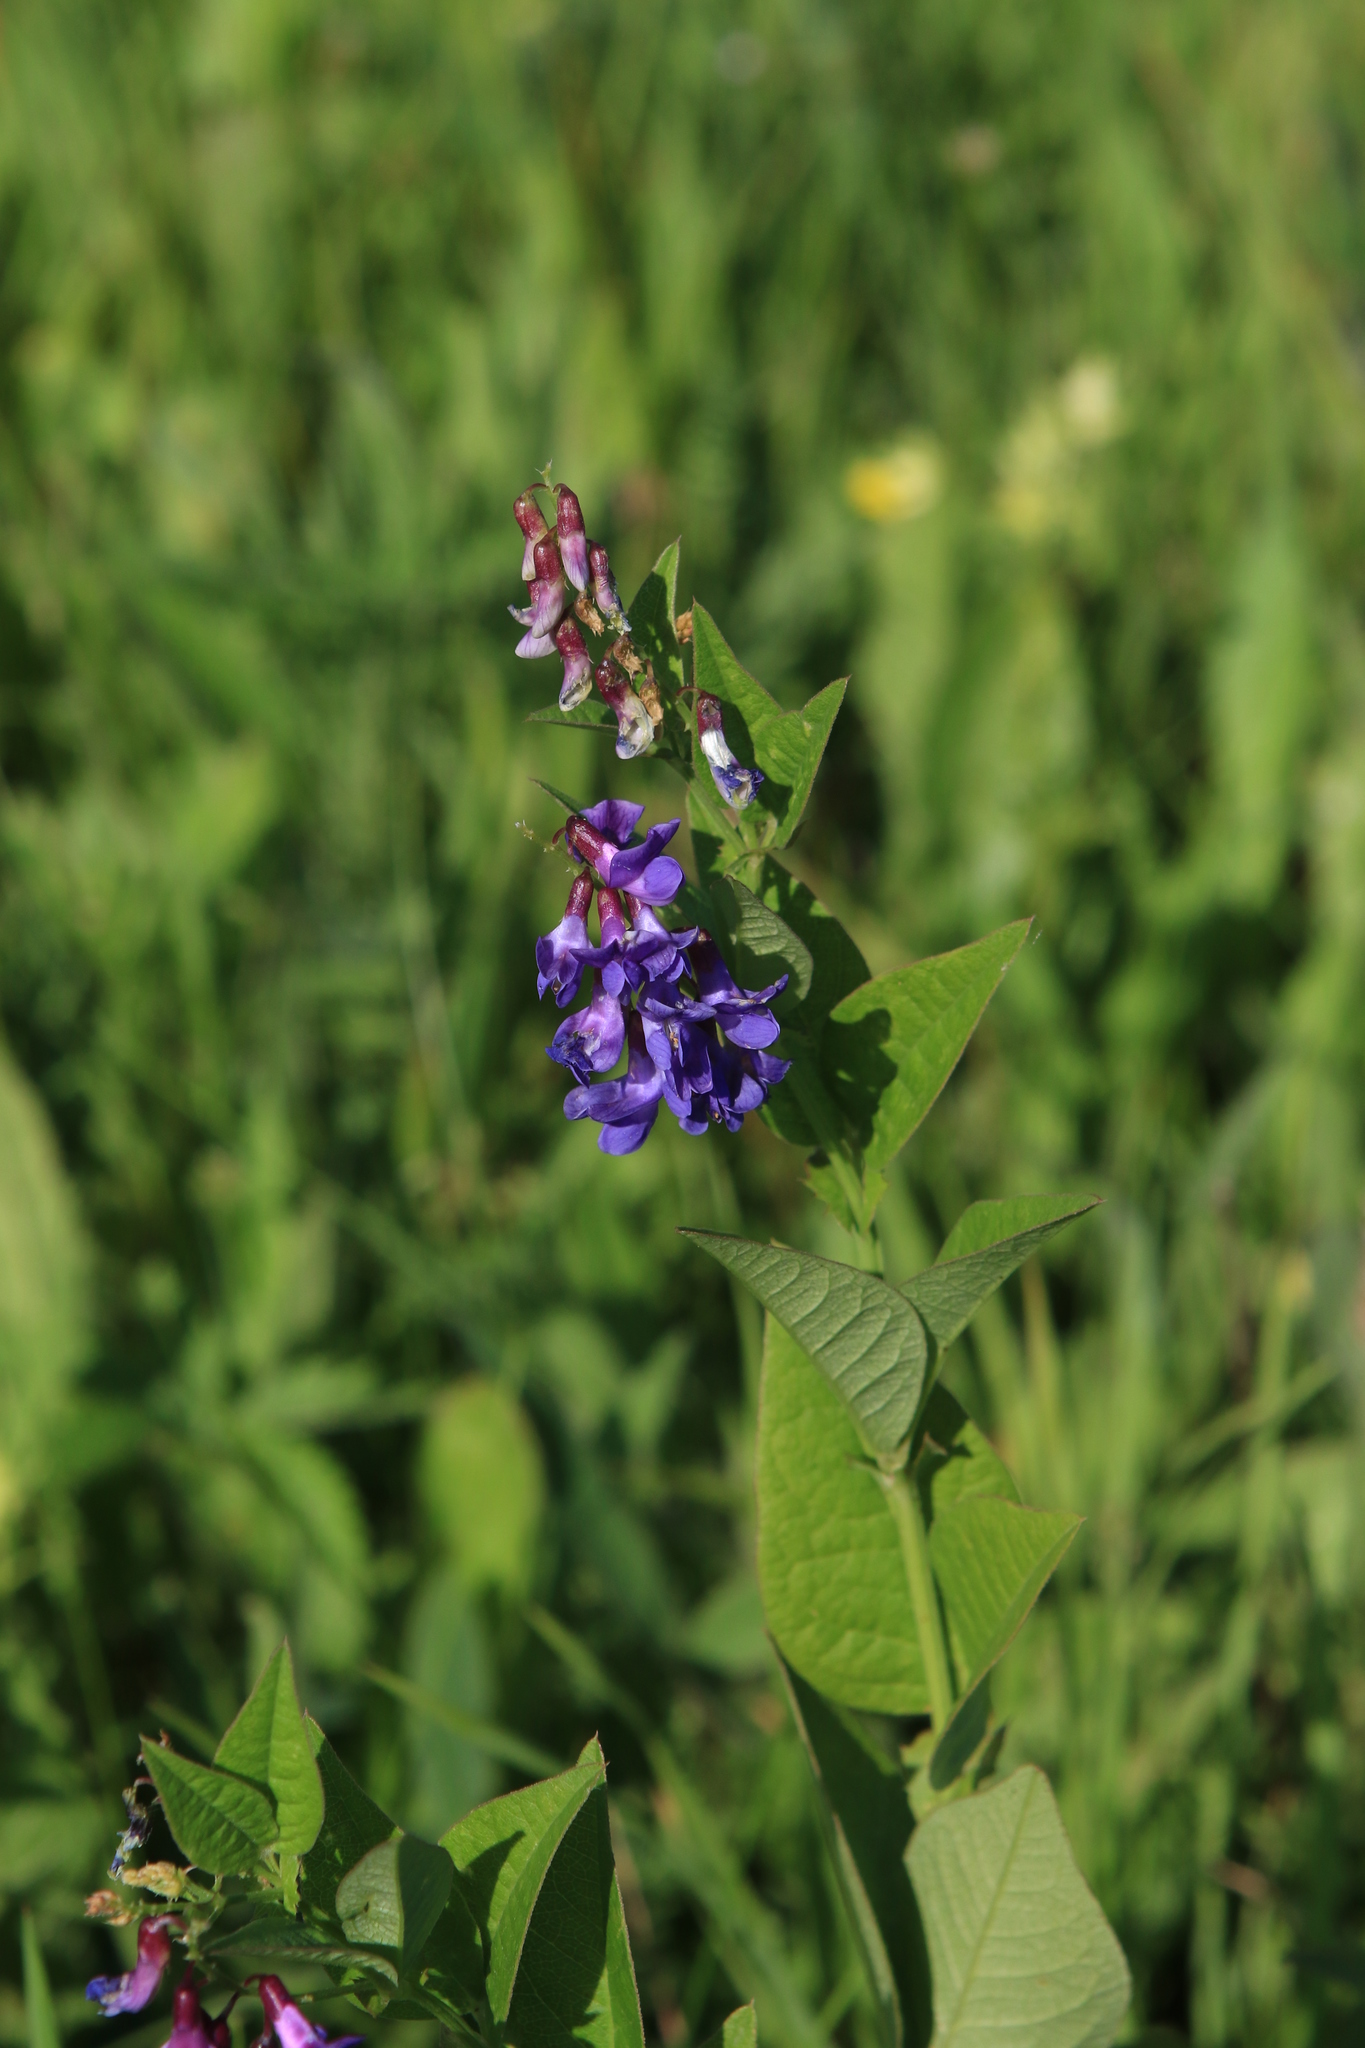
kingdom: Plantae
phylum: Tracheophyta
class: Magnoliopsida
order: Fabales
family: Fabaceae
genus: Vicia
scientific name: Vicia unijuga
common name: Two-leaf vetch
